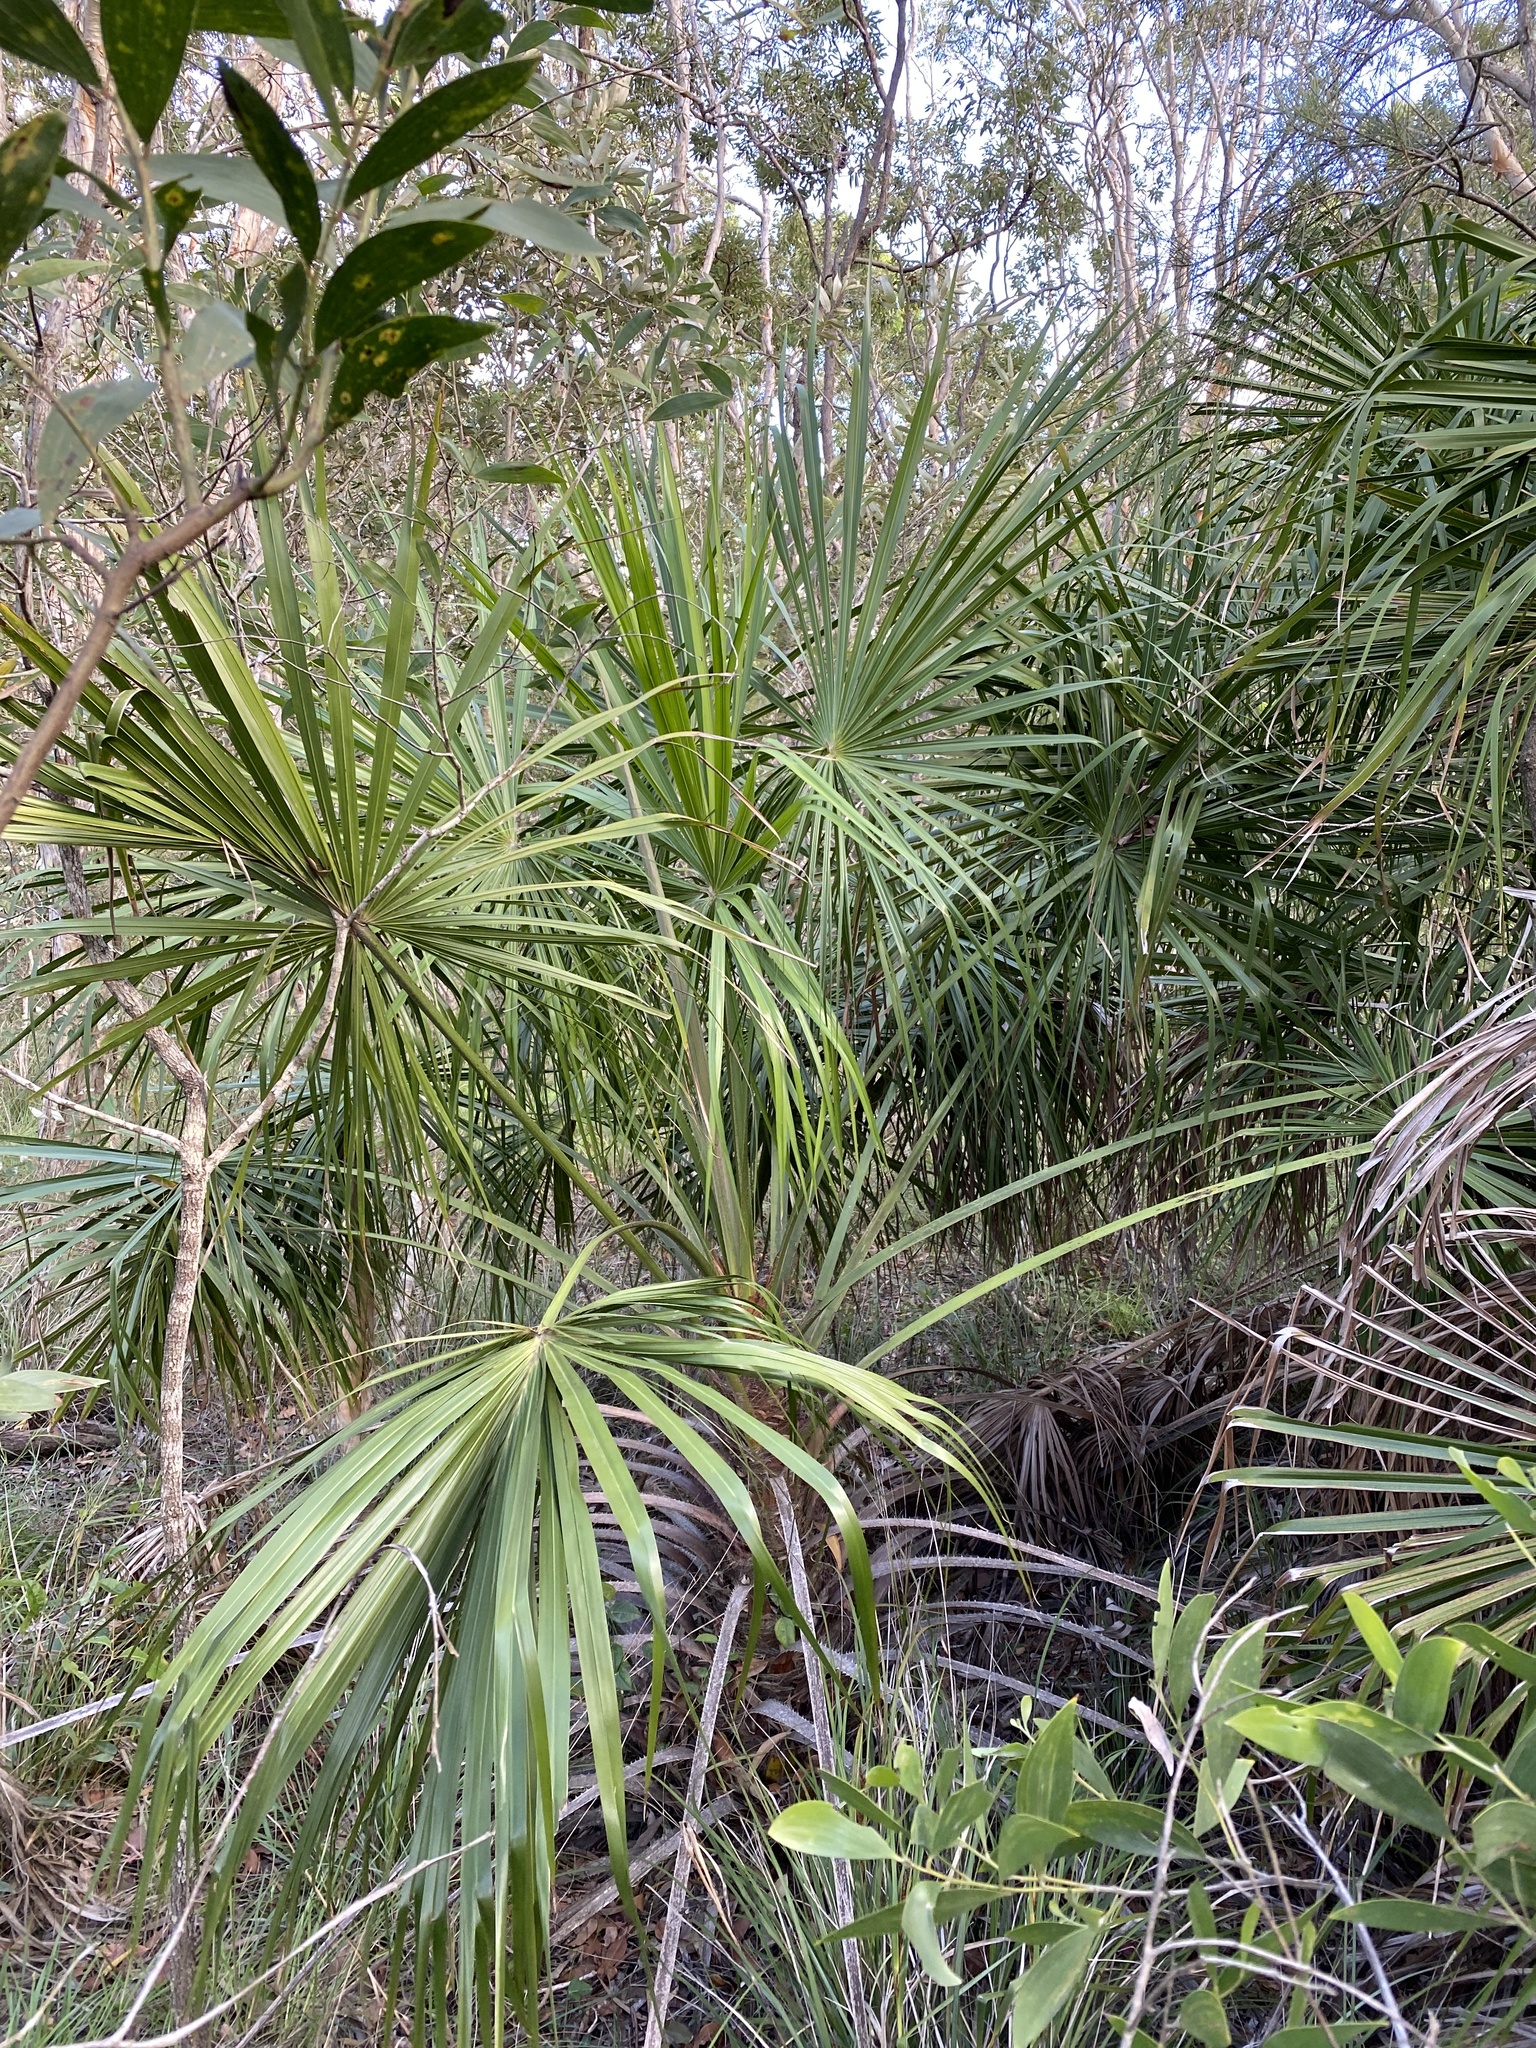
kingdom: Plantae
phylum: Tracheophyta
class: Liliopsida
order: Arecales
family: Arecaceae
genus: Livistona
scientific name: Livistona decora
